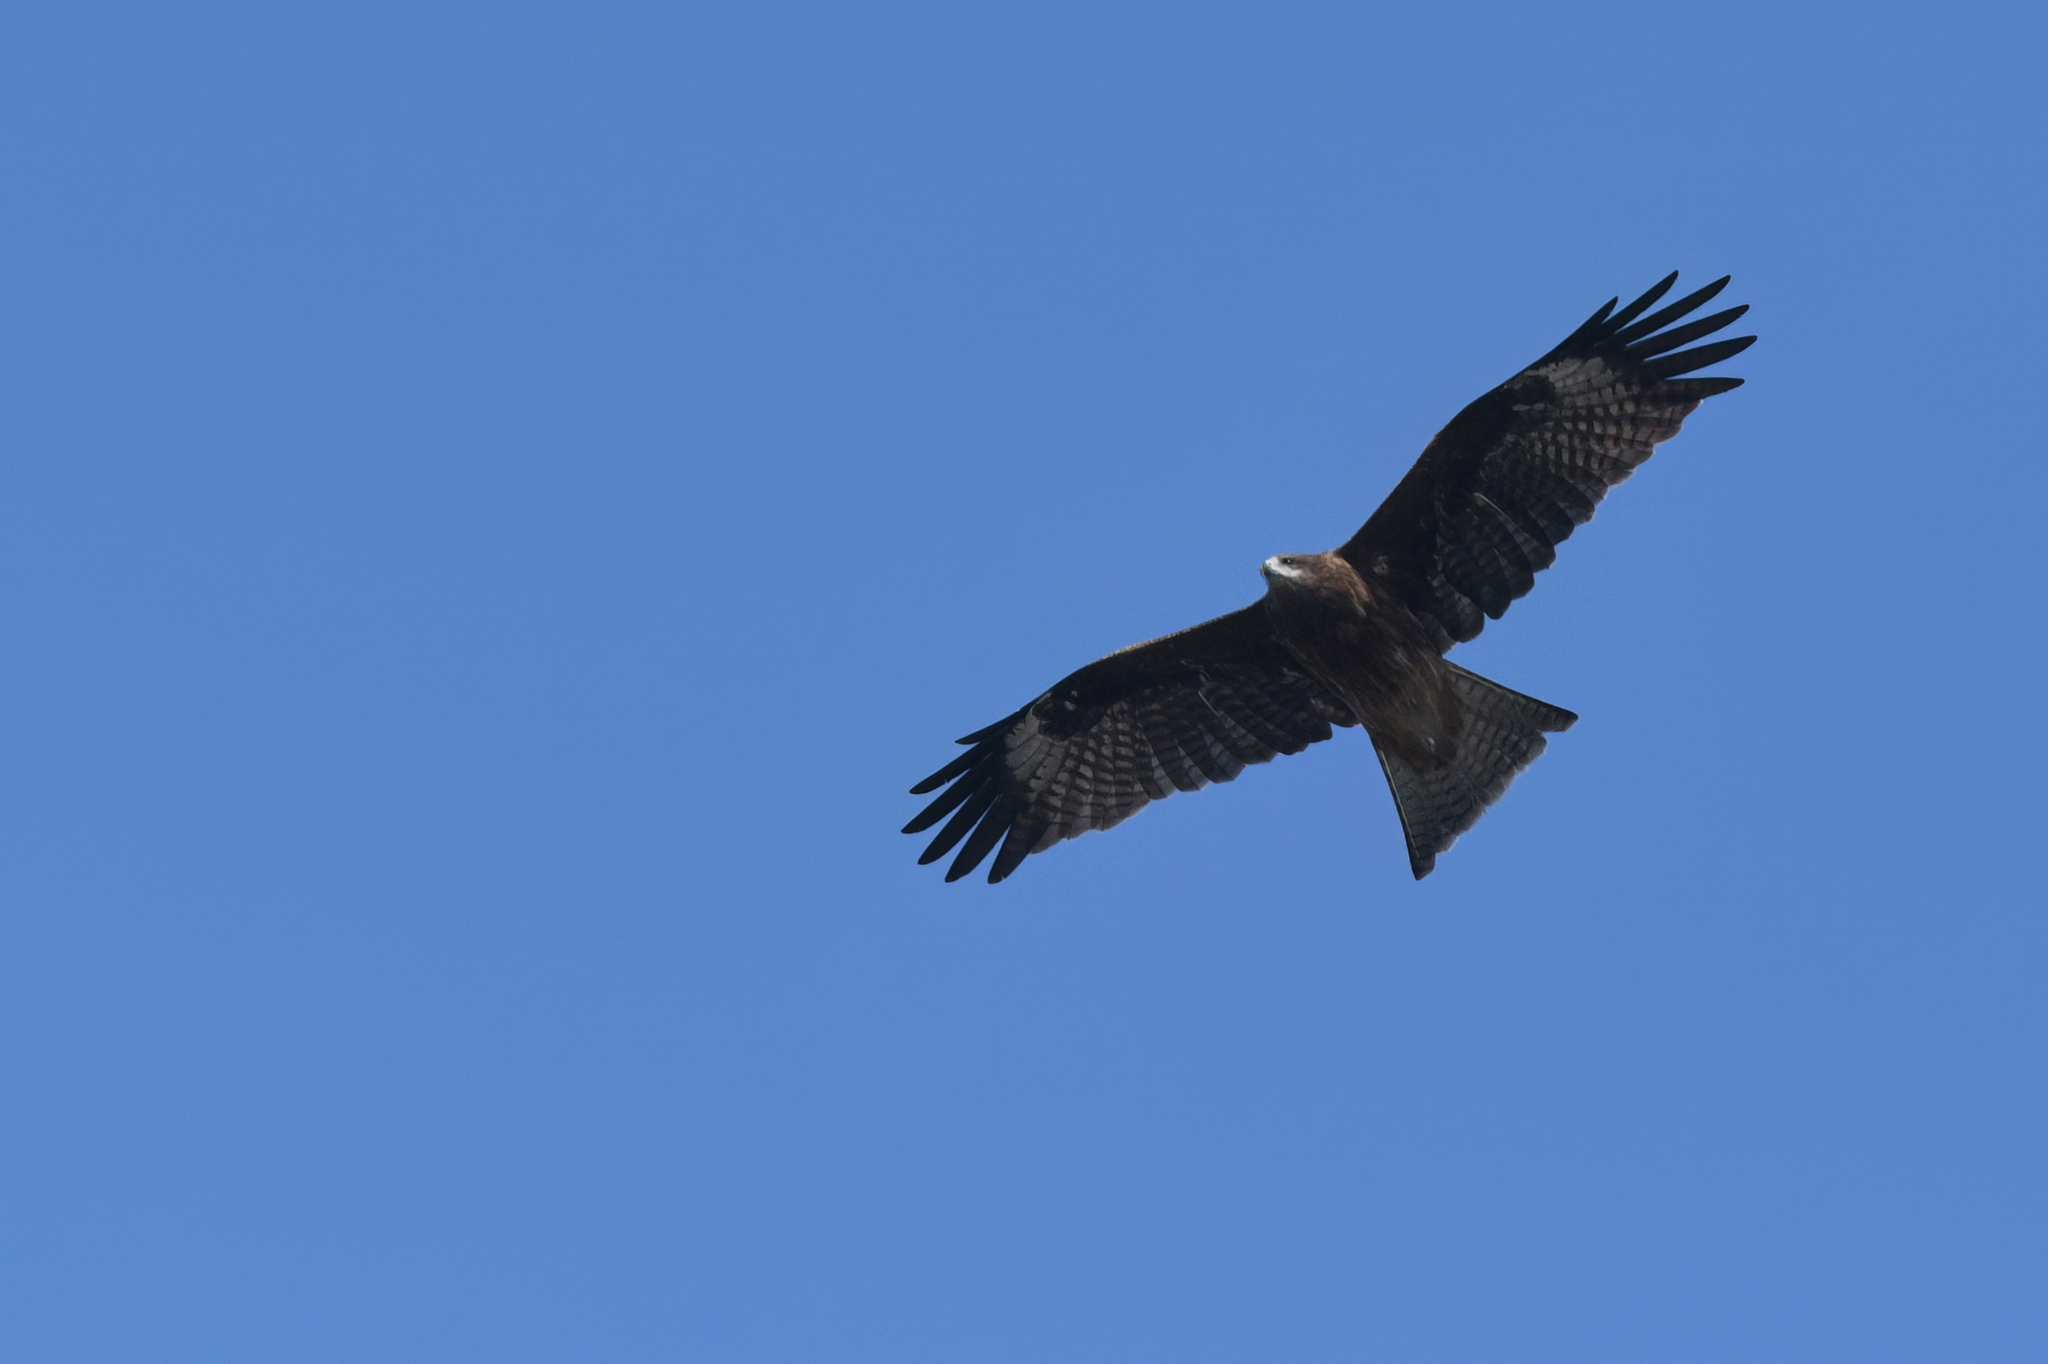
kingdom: Animalia
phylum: Chordata
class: Aves
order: Accipitriformes
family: Accipitridae
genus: Milvus
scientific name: Milvus migrans
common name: Black kite
